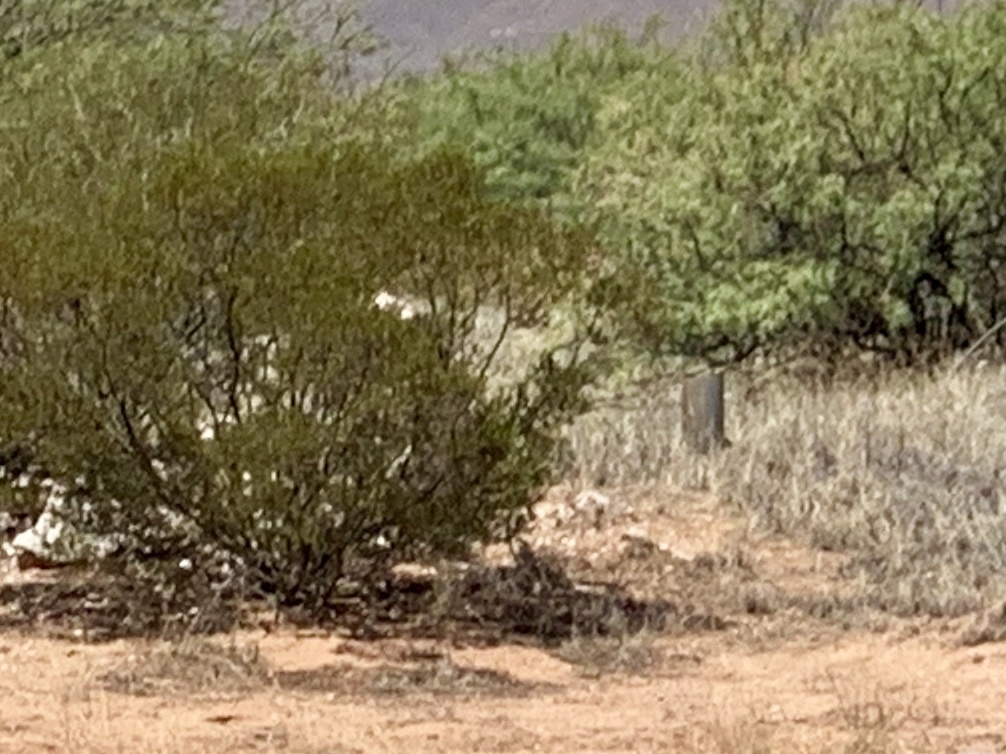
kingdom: Plantae
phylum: Tracheophyta
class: Magnoliopsida
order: Zygophyllales
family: Zygophyllaceae
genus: Larrea
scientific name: Larrea tridentata
